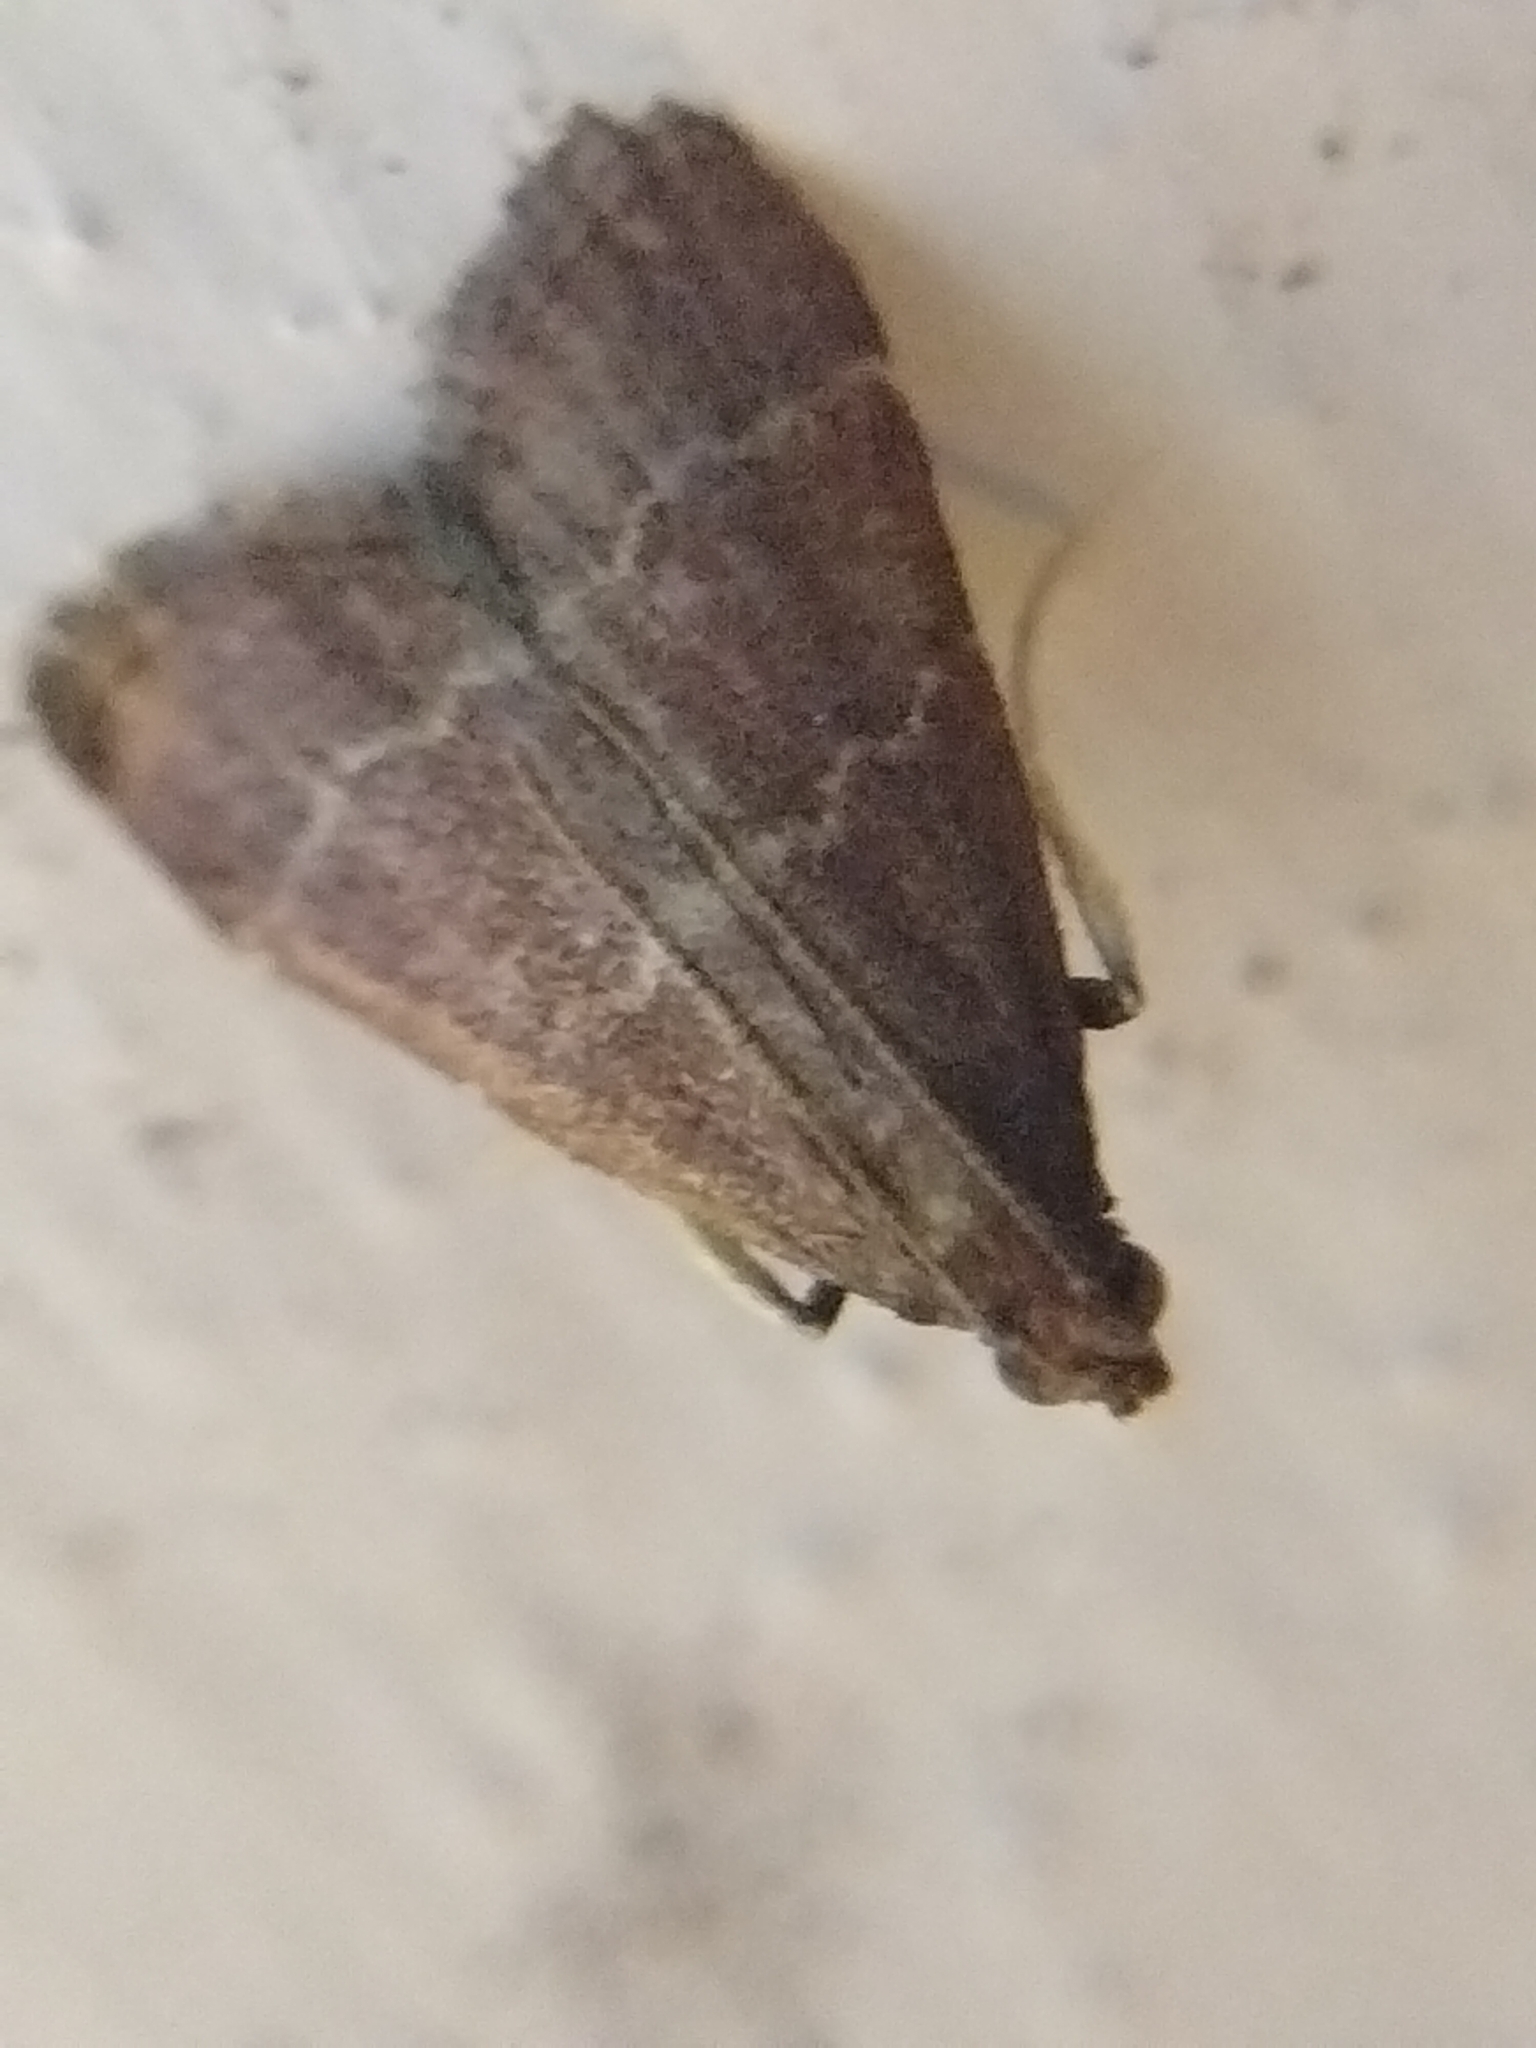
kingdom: Animalia
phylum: Arthropoda
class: Insecta
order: Lepidoptera
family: Pyralidae
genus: Arta
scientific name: Arta
